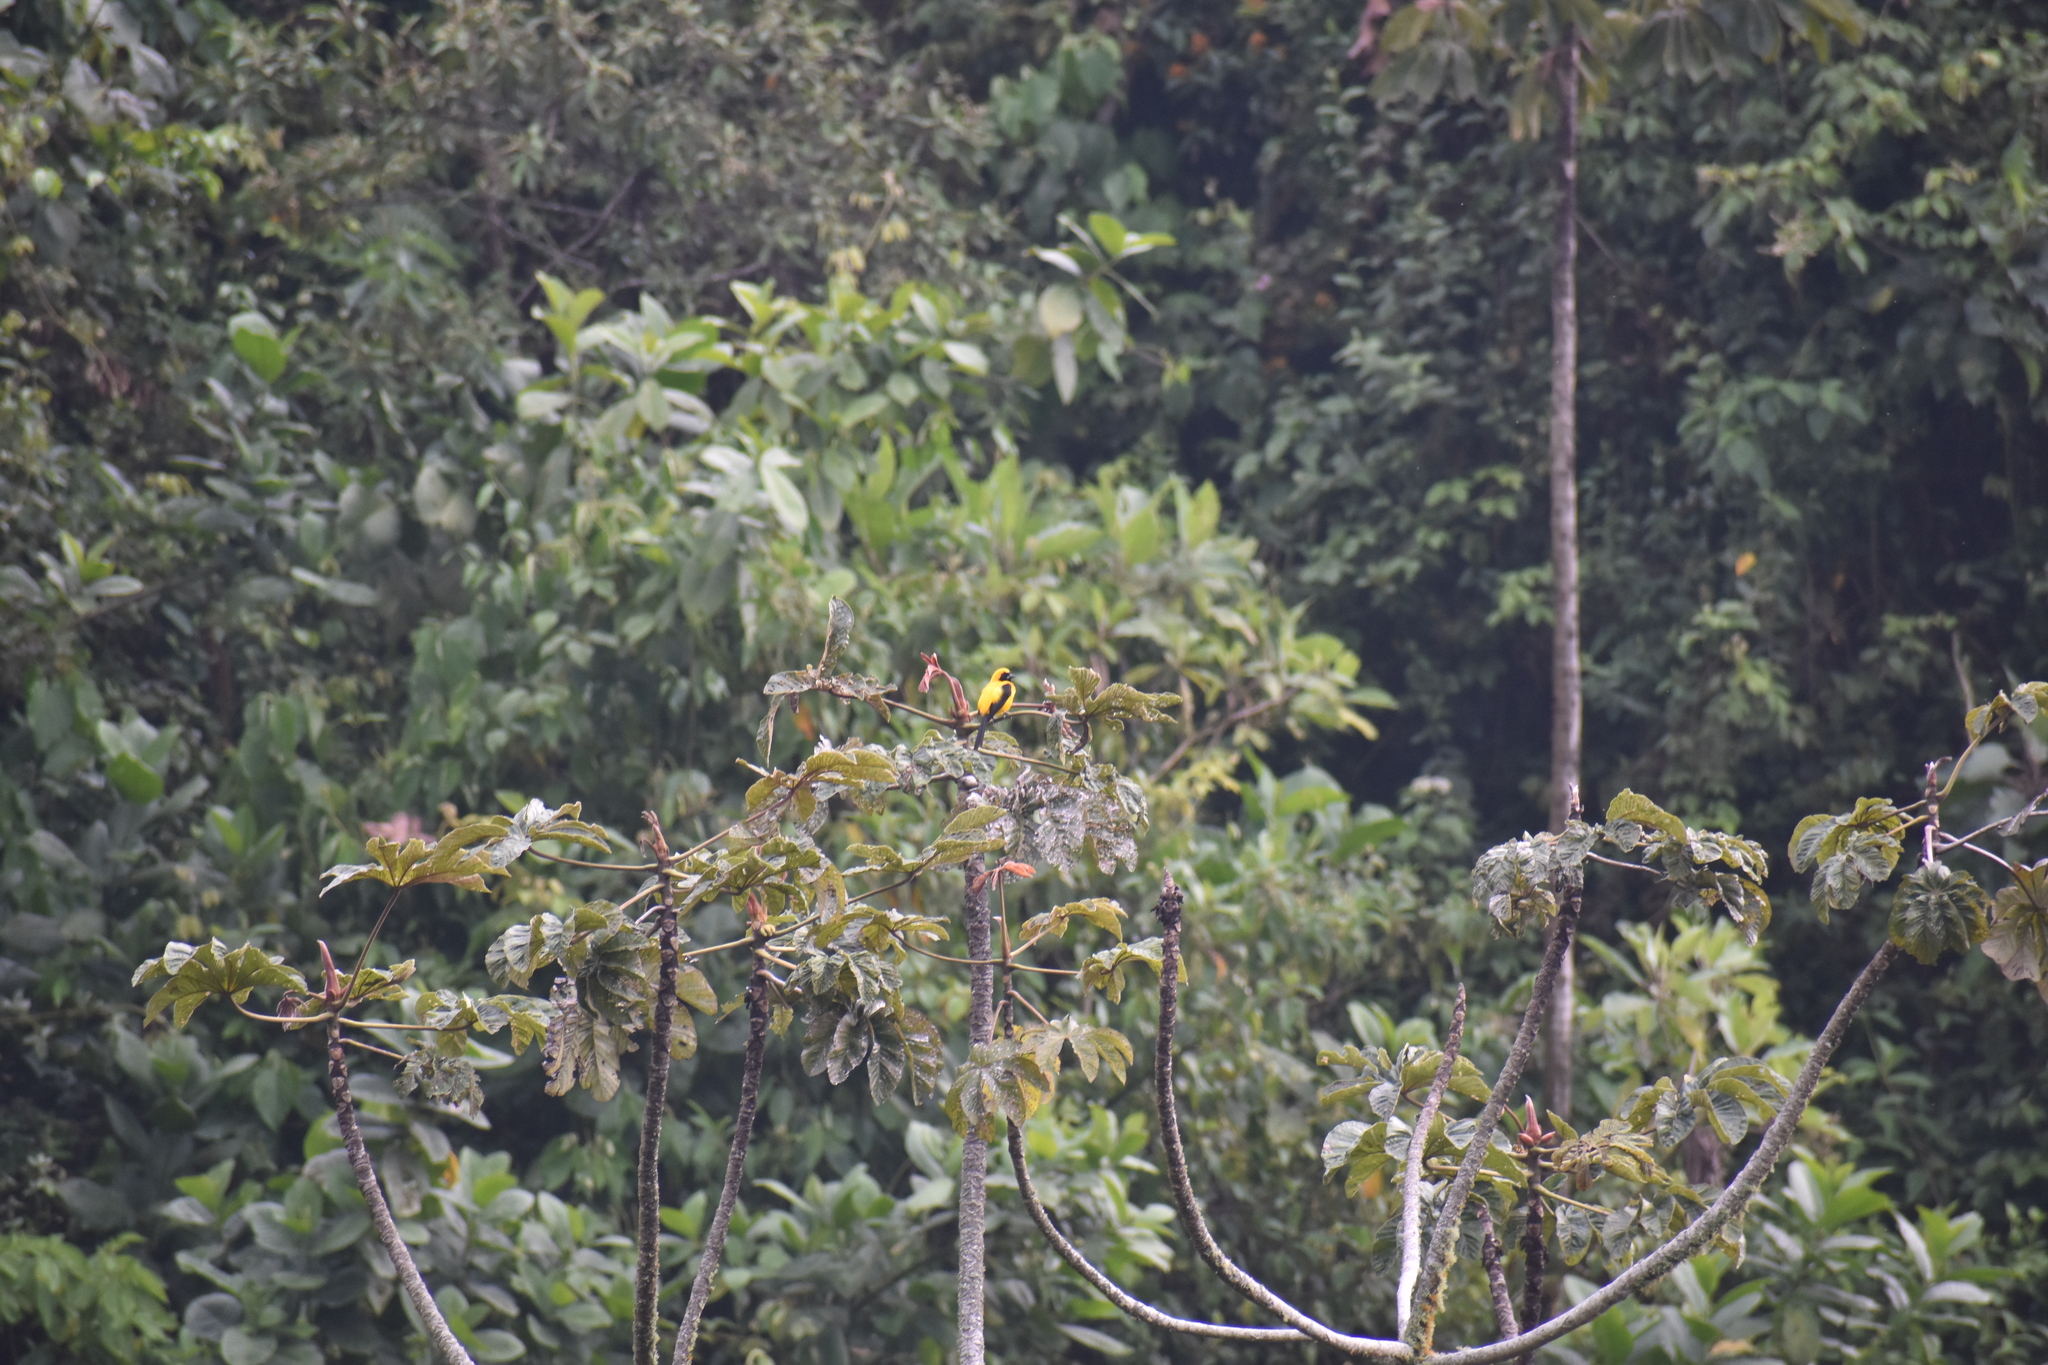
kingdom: Animalia
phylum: Chordata
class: Aves
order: Passeriformes
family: Icteridae
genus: Icterus
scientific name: Icterus chrysater
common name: Yellow-backed oriole
